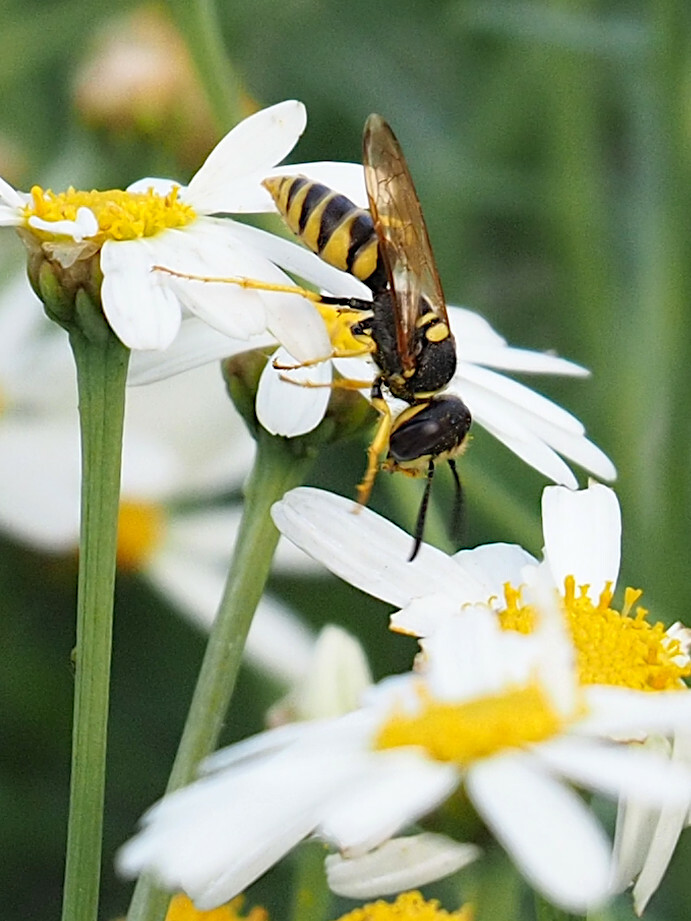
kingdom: Animalia
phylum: Arthropoda
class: Insecta
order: Hymenoptera
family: Crabronidae
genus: Philanthus
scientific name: Philanthus triangulum
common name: Bee wolf
